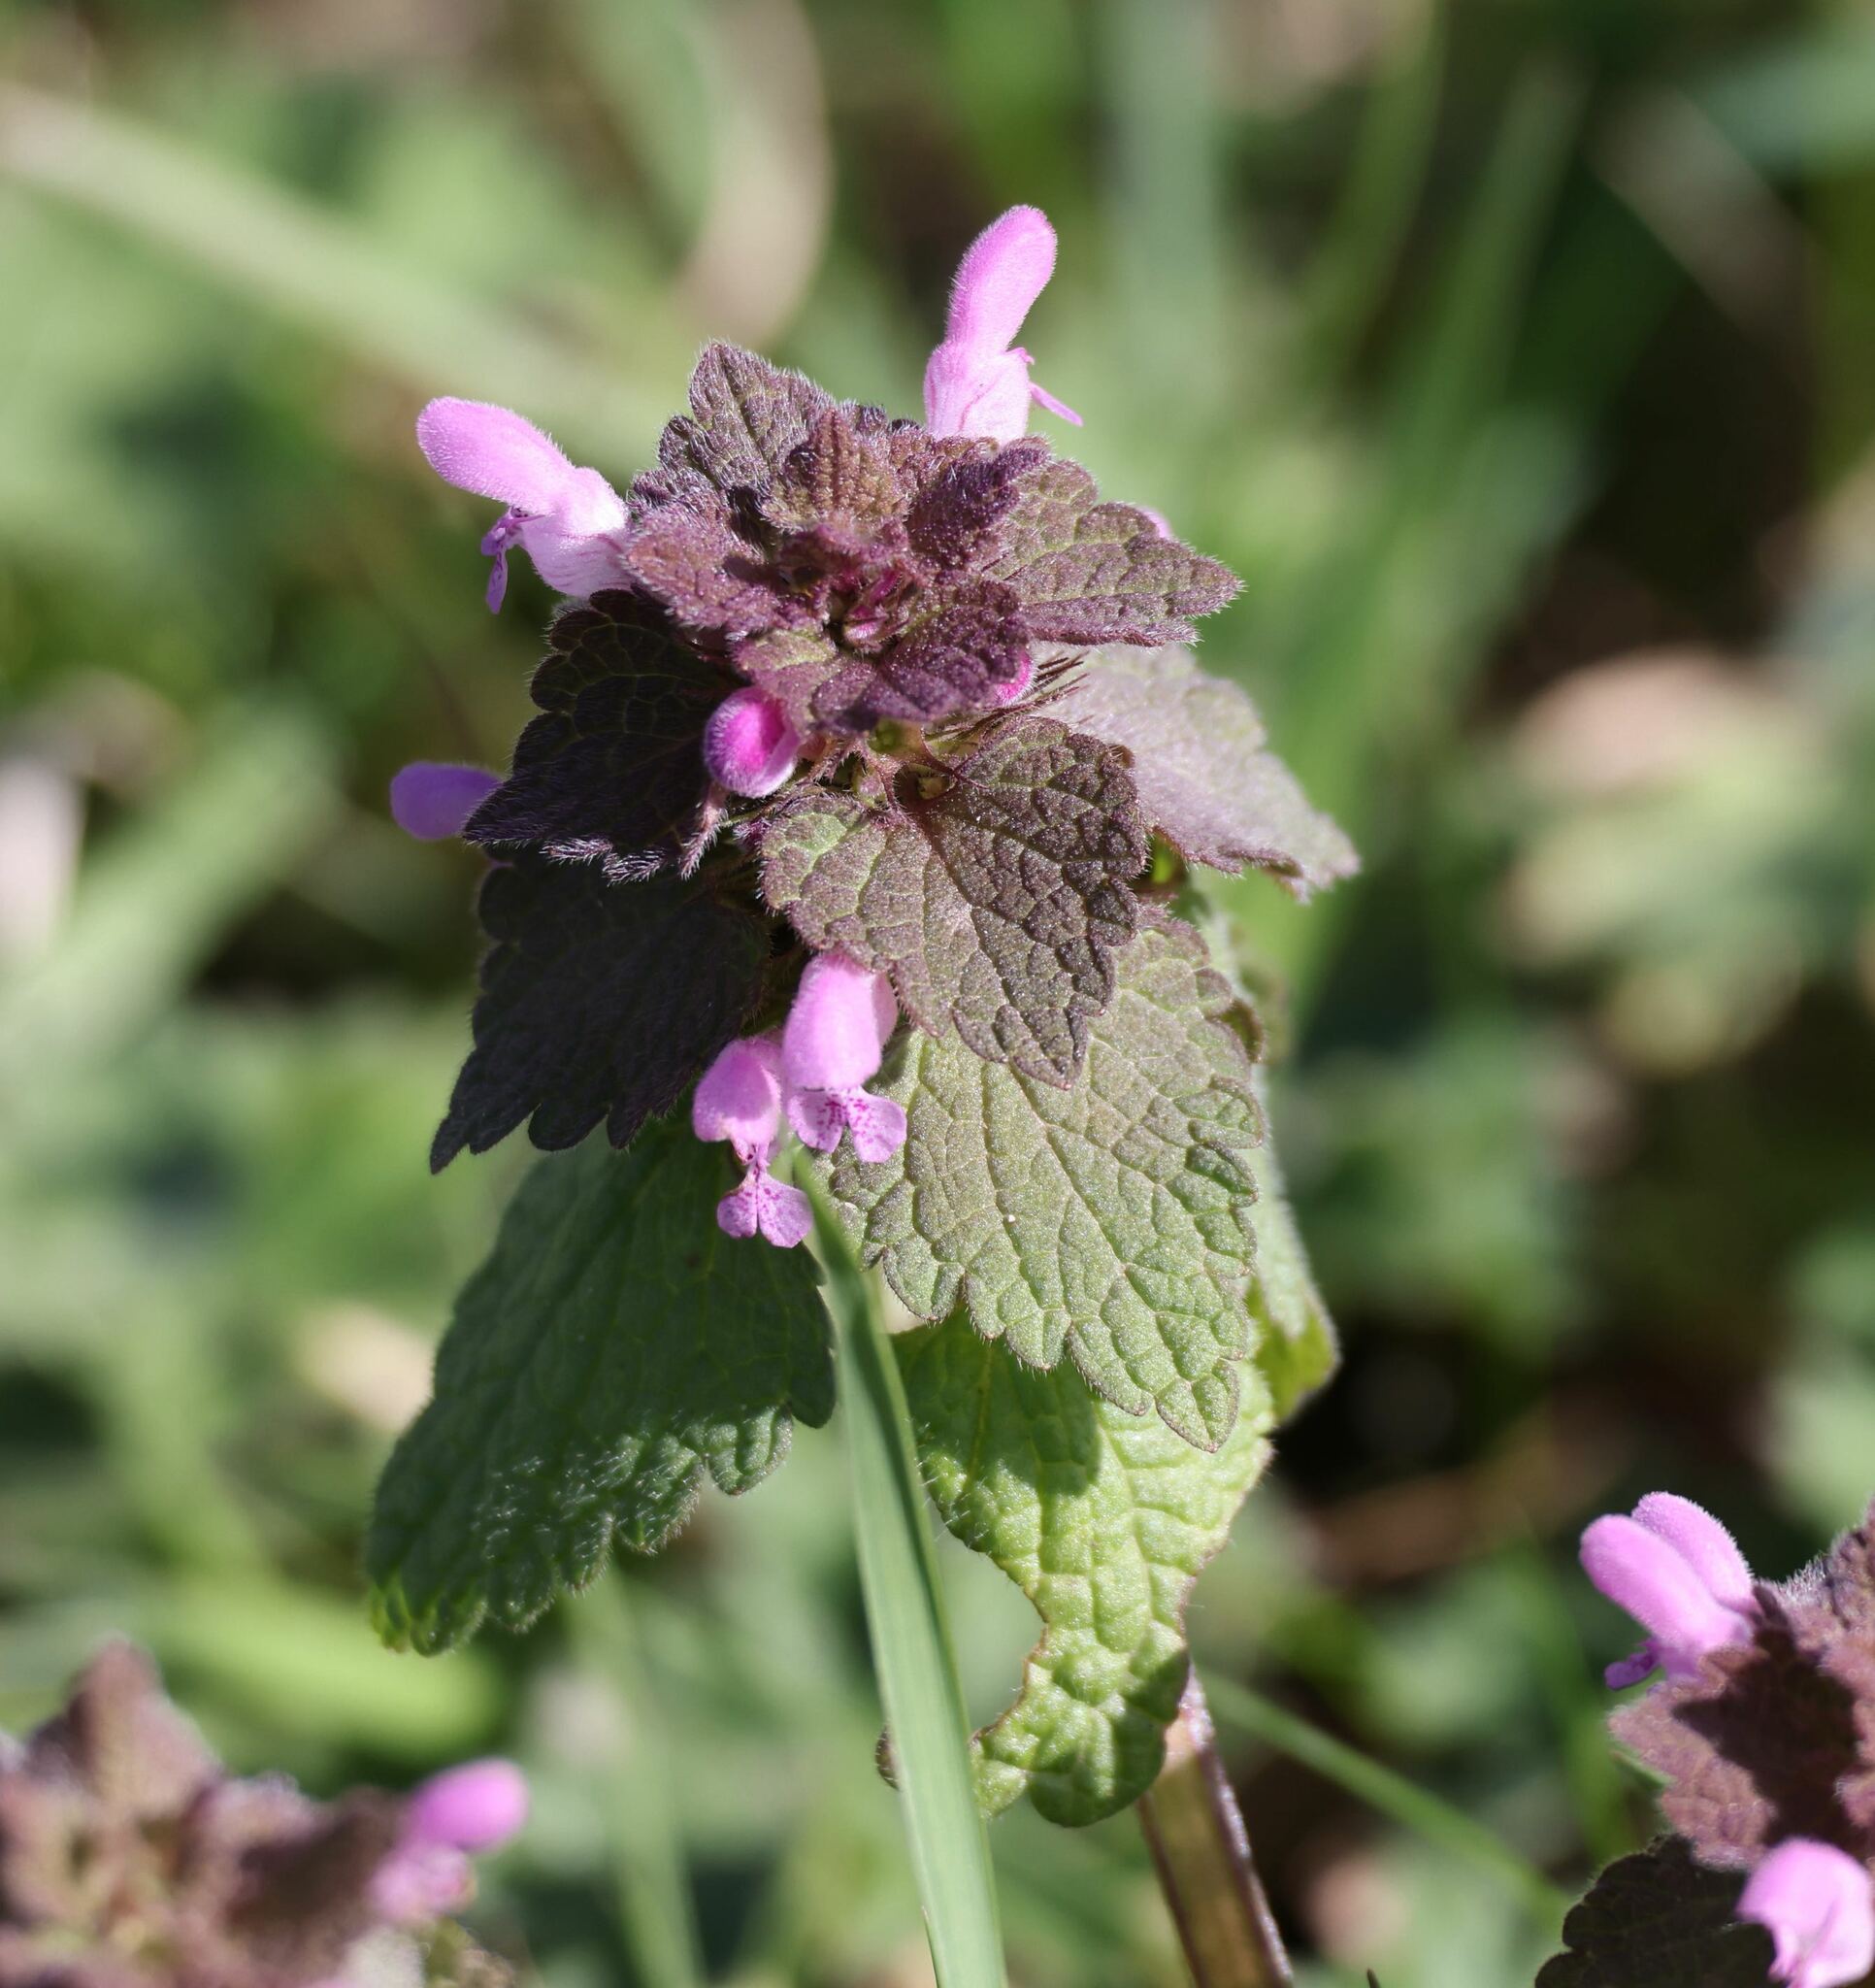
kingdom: Plantae
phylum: Tracheophyta
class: Magnoliopsida
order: Lamiales
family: Lamiaceae
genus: Lamium
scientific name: Lamium purpureum
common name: Red dead-nettle
